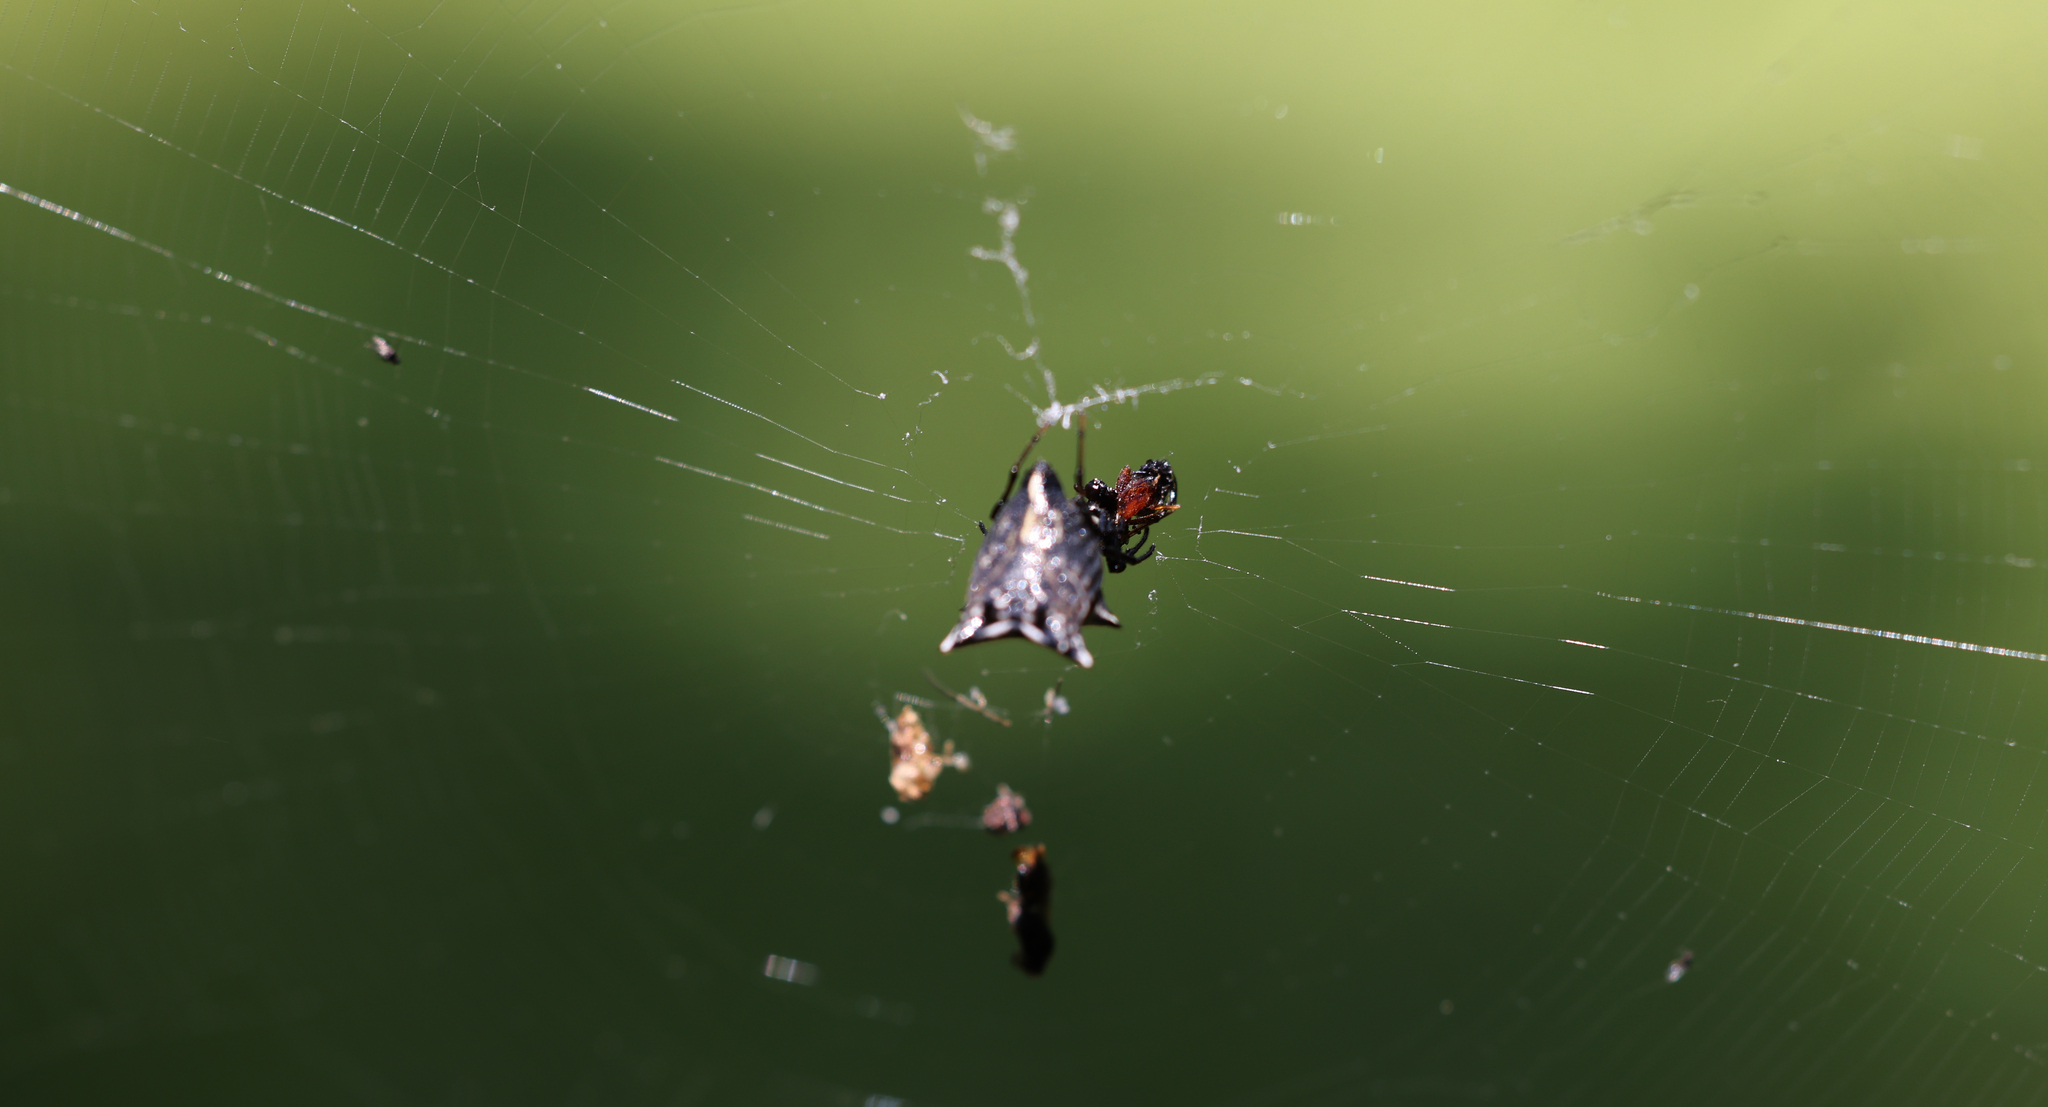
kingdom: Animalia
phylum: Arthropoda
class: Arachnida
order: Araneae
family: Araneidae
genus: Micrathena
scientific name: Micrathena gracilis
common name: Orb weavers
